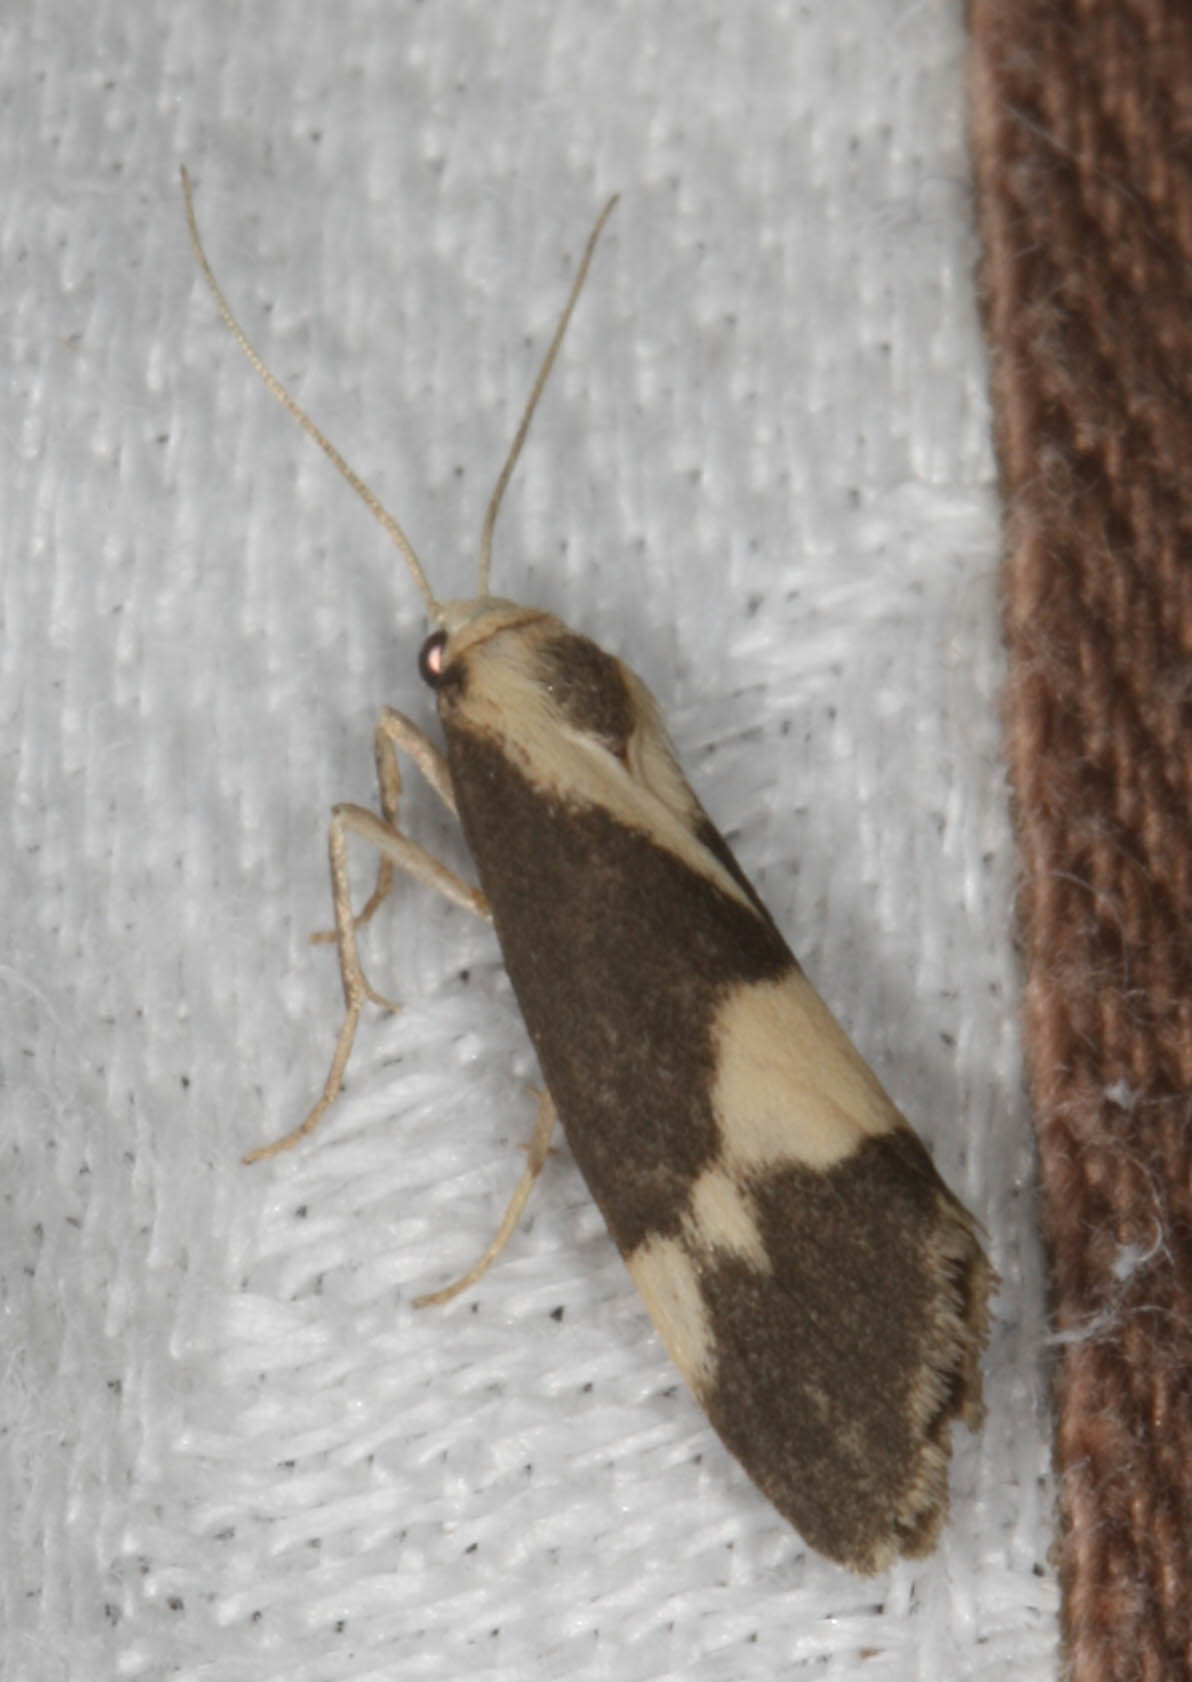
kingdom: Animalia
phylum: Arthropoda
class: Insecta
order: Lepidoptera
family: Erebidae
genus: Cisthene
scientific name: Cisthene faustinula
